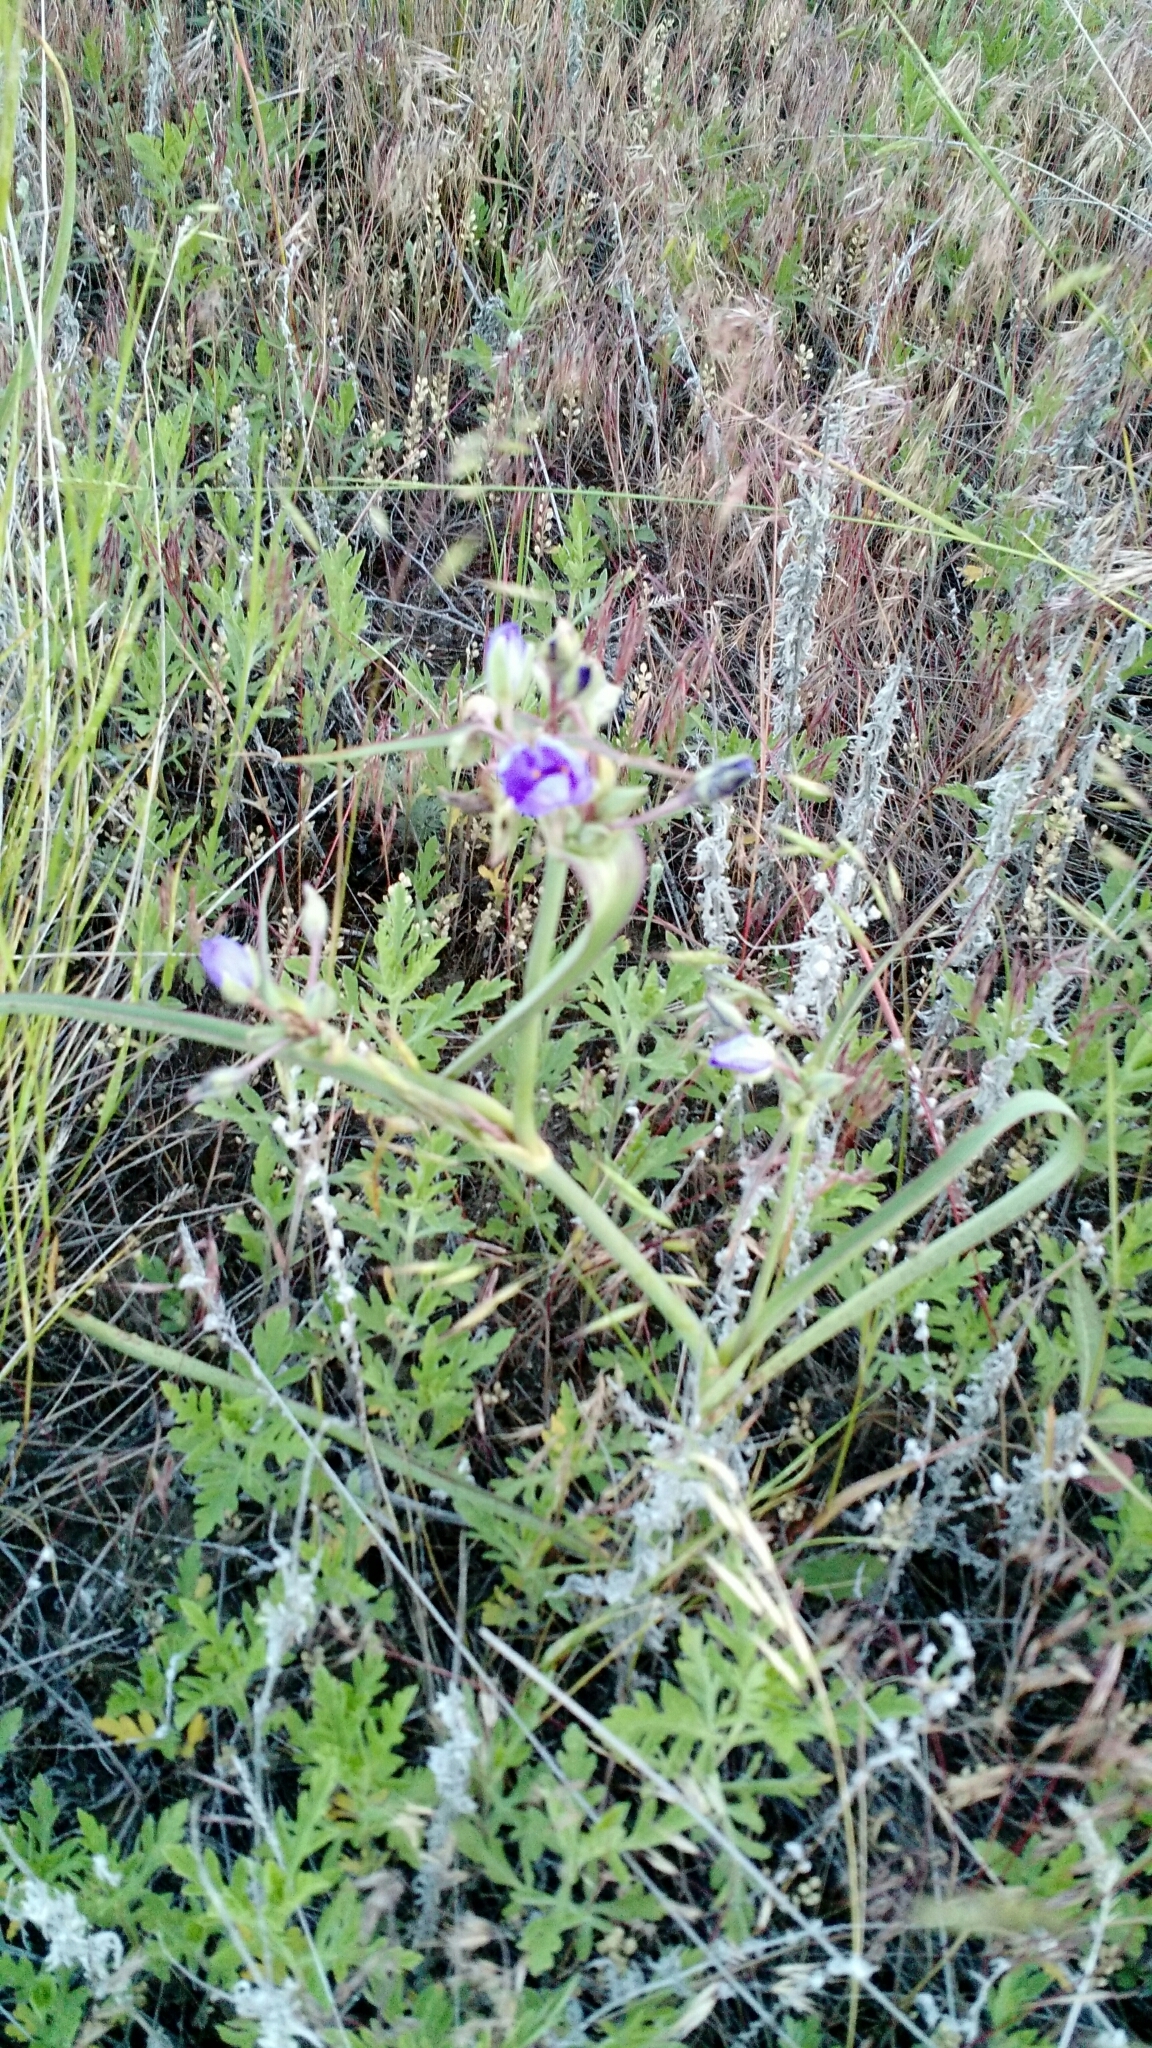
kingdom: Plantae
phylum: Tracheophyta
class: Liliopsida
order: Commelinales
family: Commelinaceae
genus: Tradescantia
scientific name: Tradescantia occidentalis
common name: Prairie spiderwort
